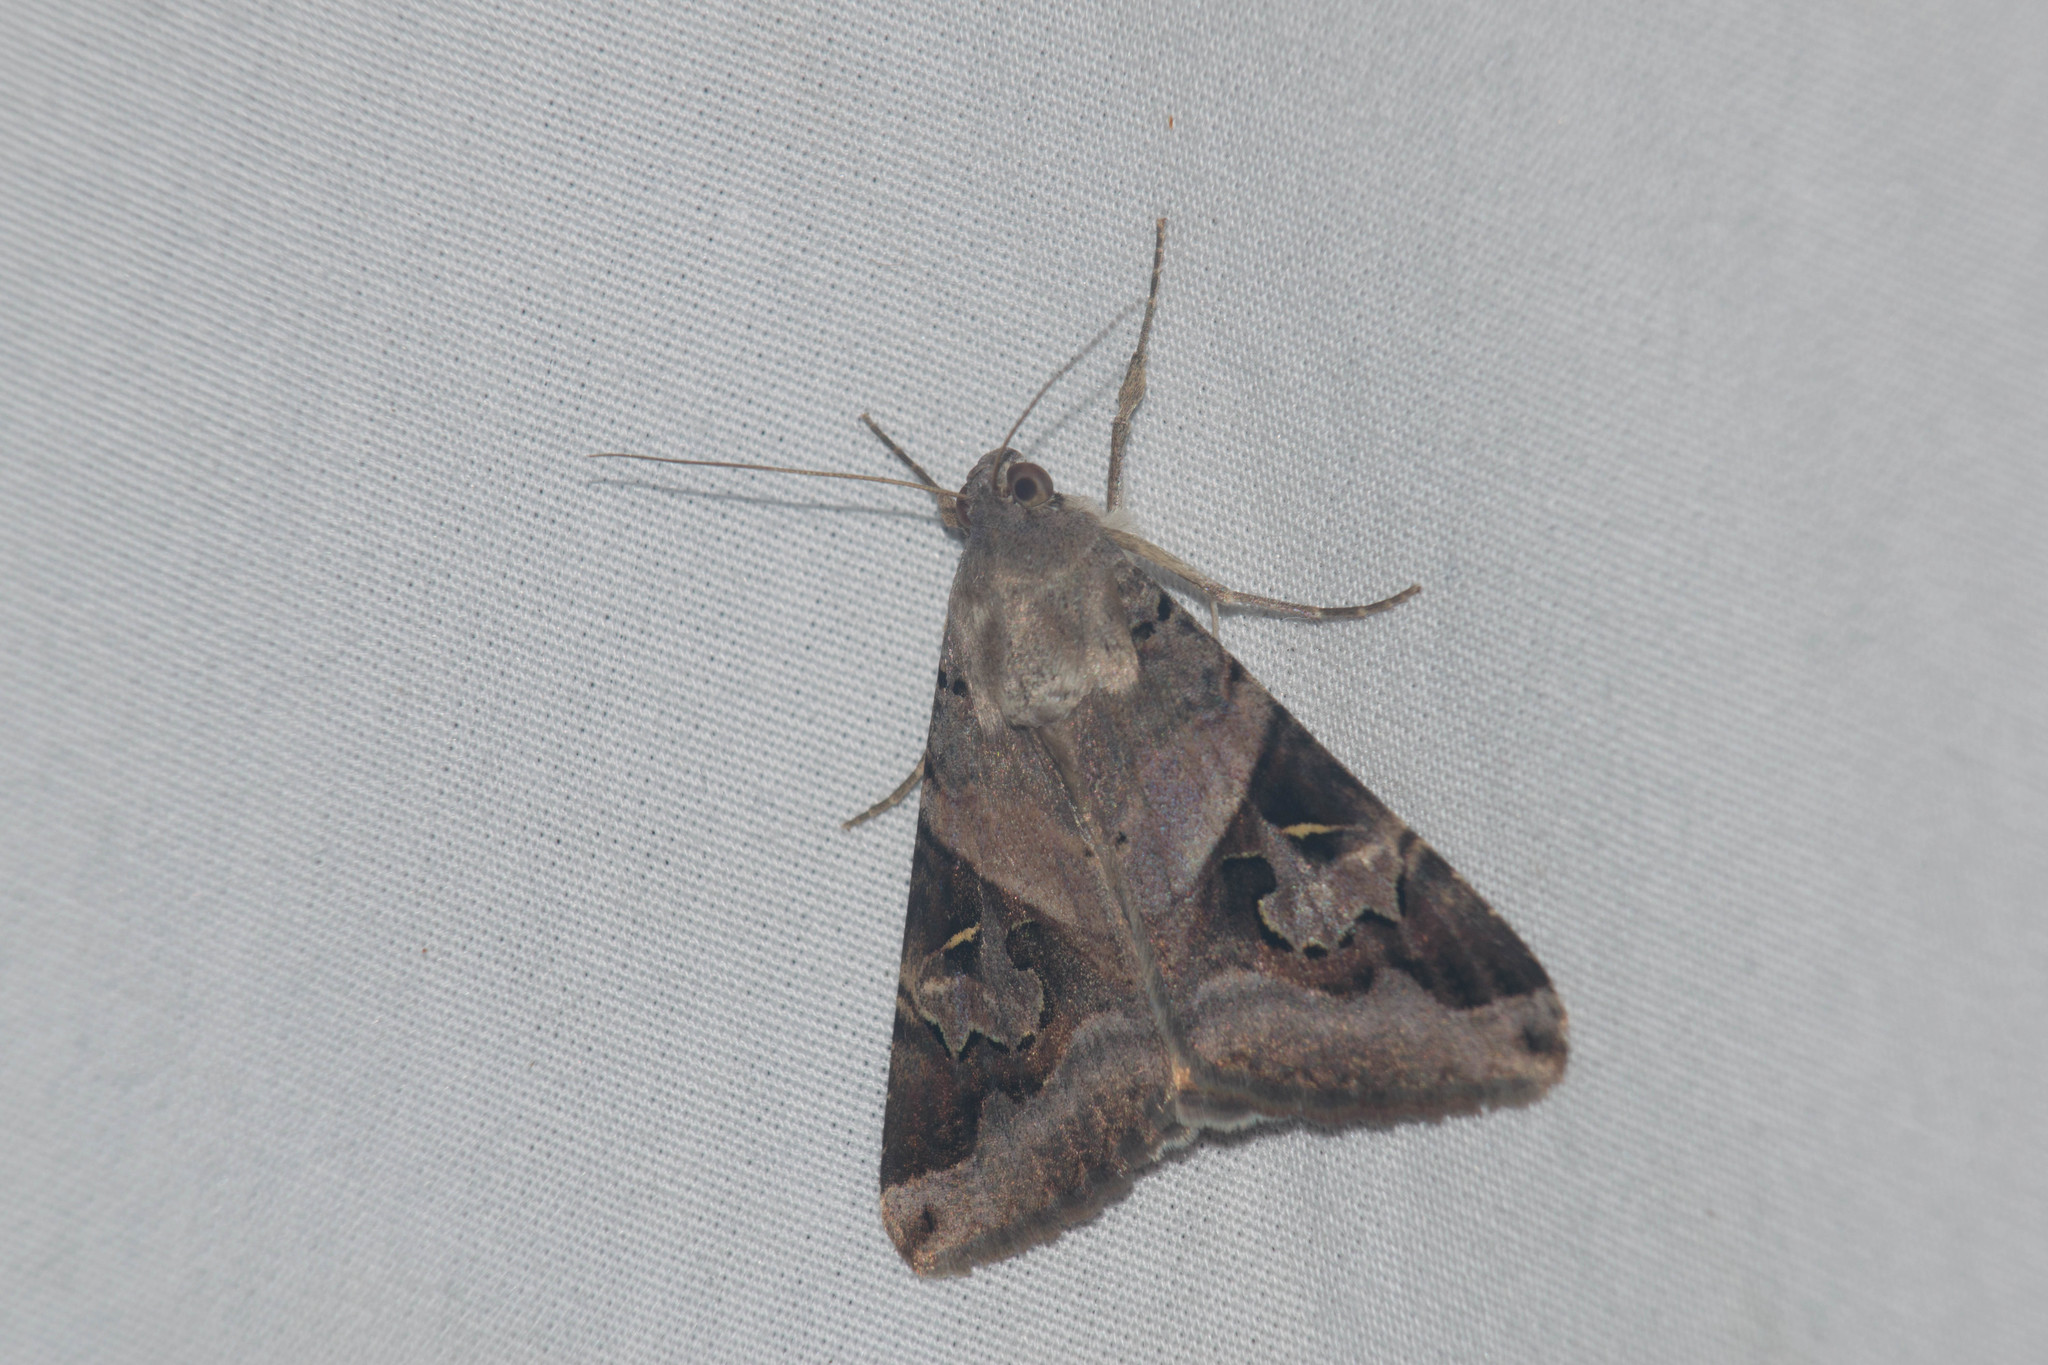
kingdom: Animalia
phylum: Arthropoda
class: Insecta
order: Lepidoptera
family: Erebidae
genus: Melipotis
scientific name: Melipotis indomita
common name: Moth
